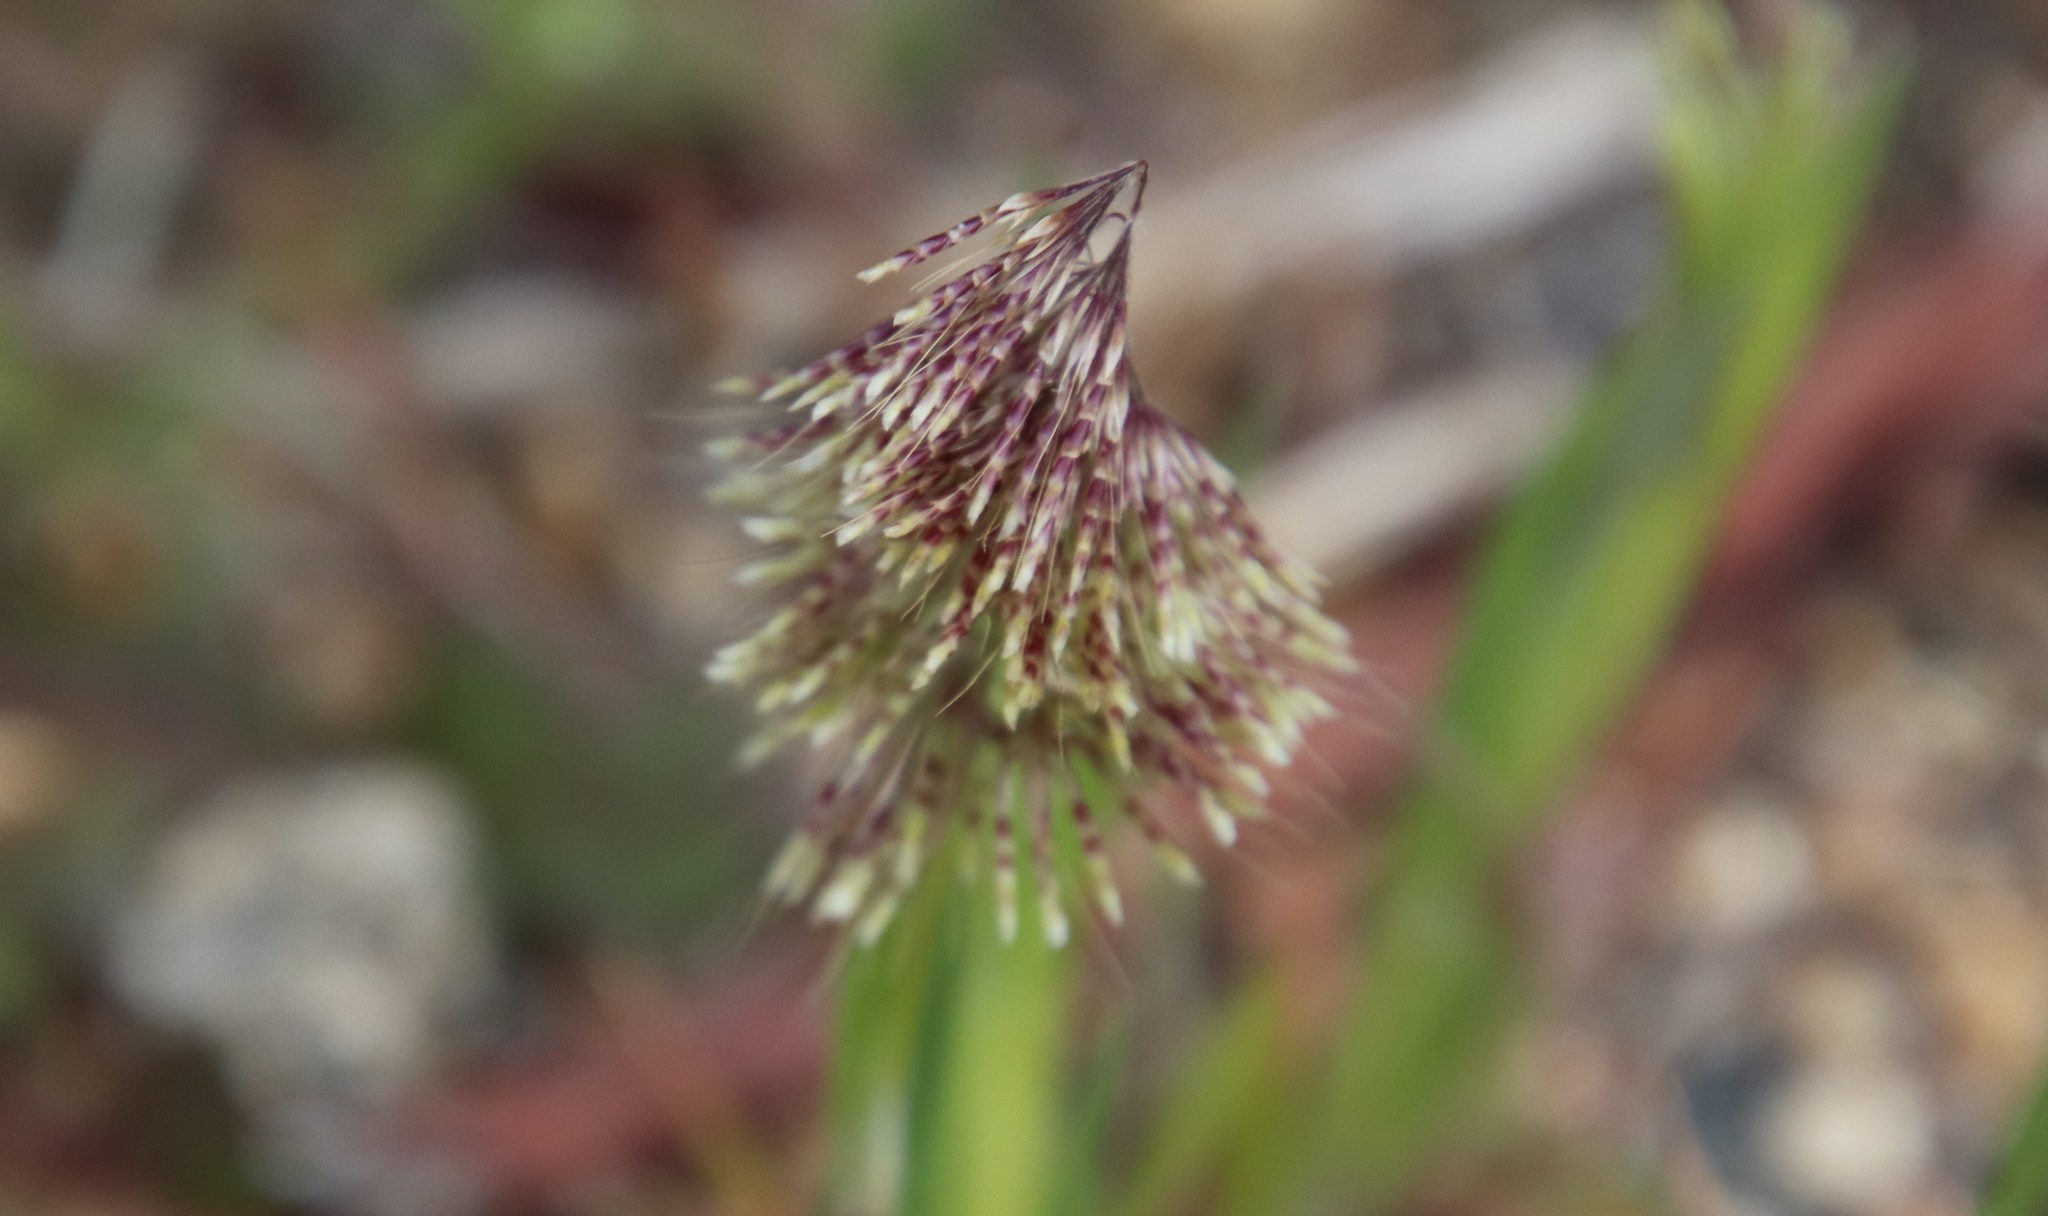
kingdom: Plantae
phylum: Tracheophyta
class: Liliopsida
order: Poales
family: Poaceae
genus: Lamarckia
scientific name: Lamarckia aurea
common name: Golden dog's-tail
